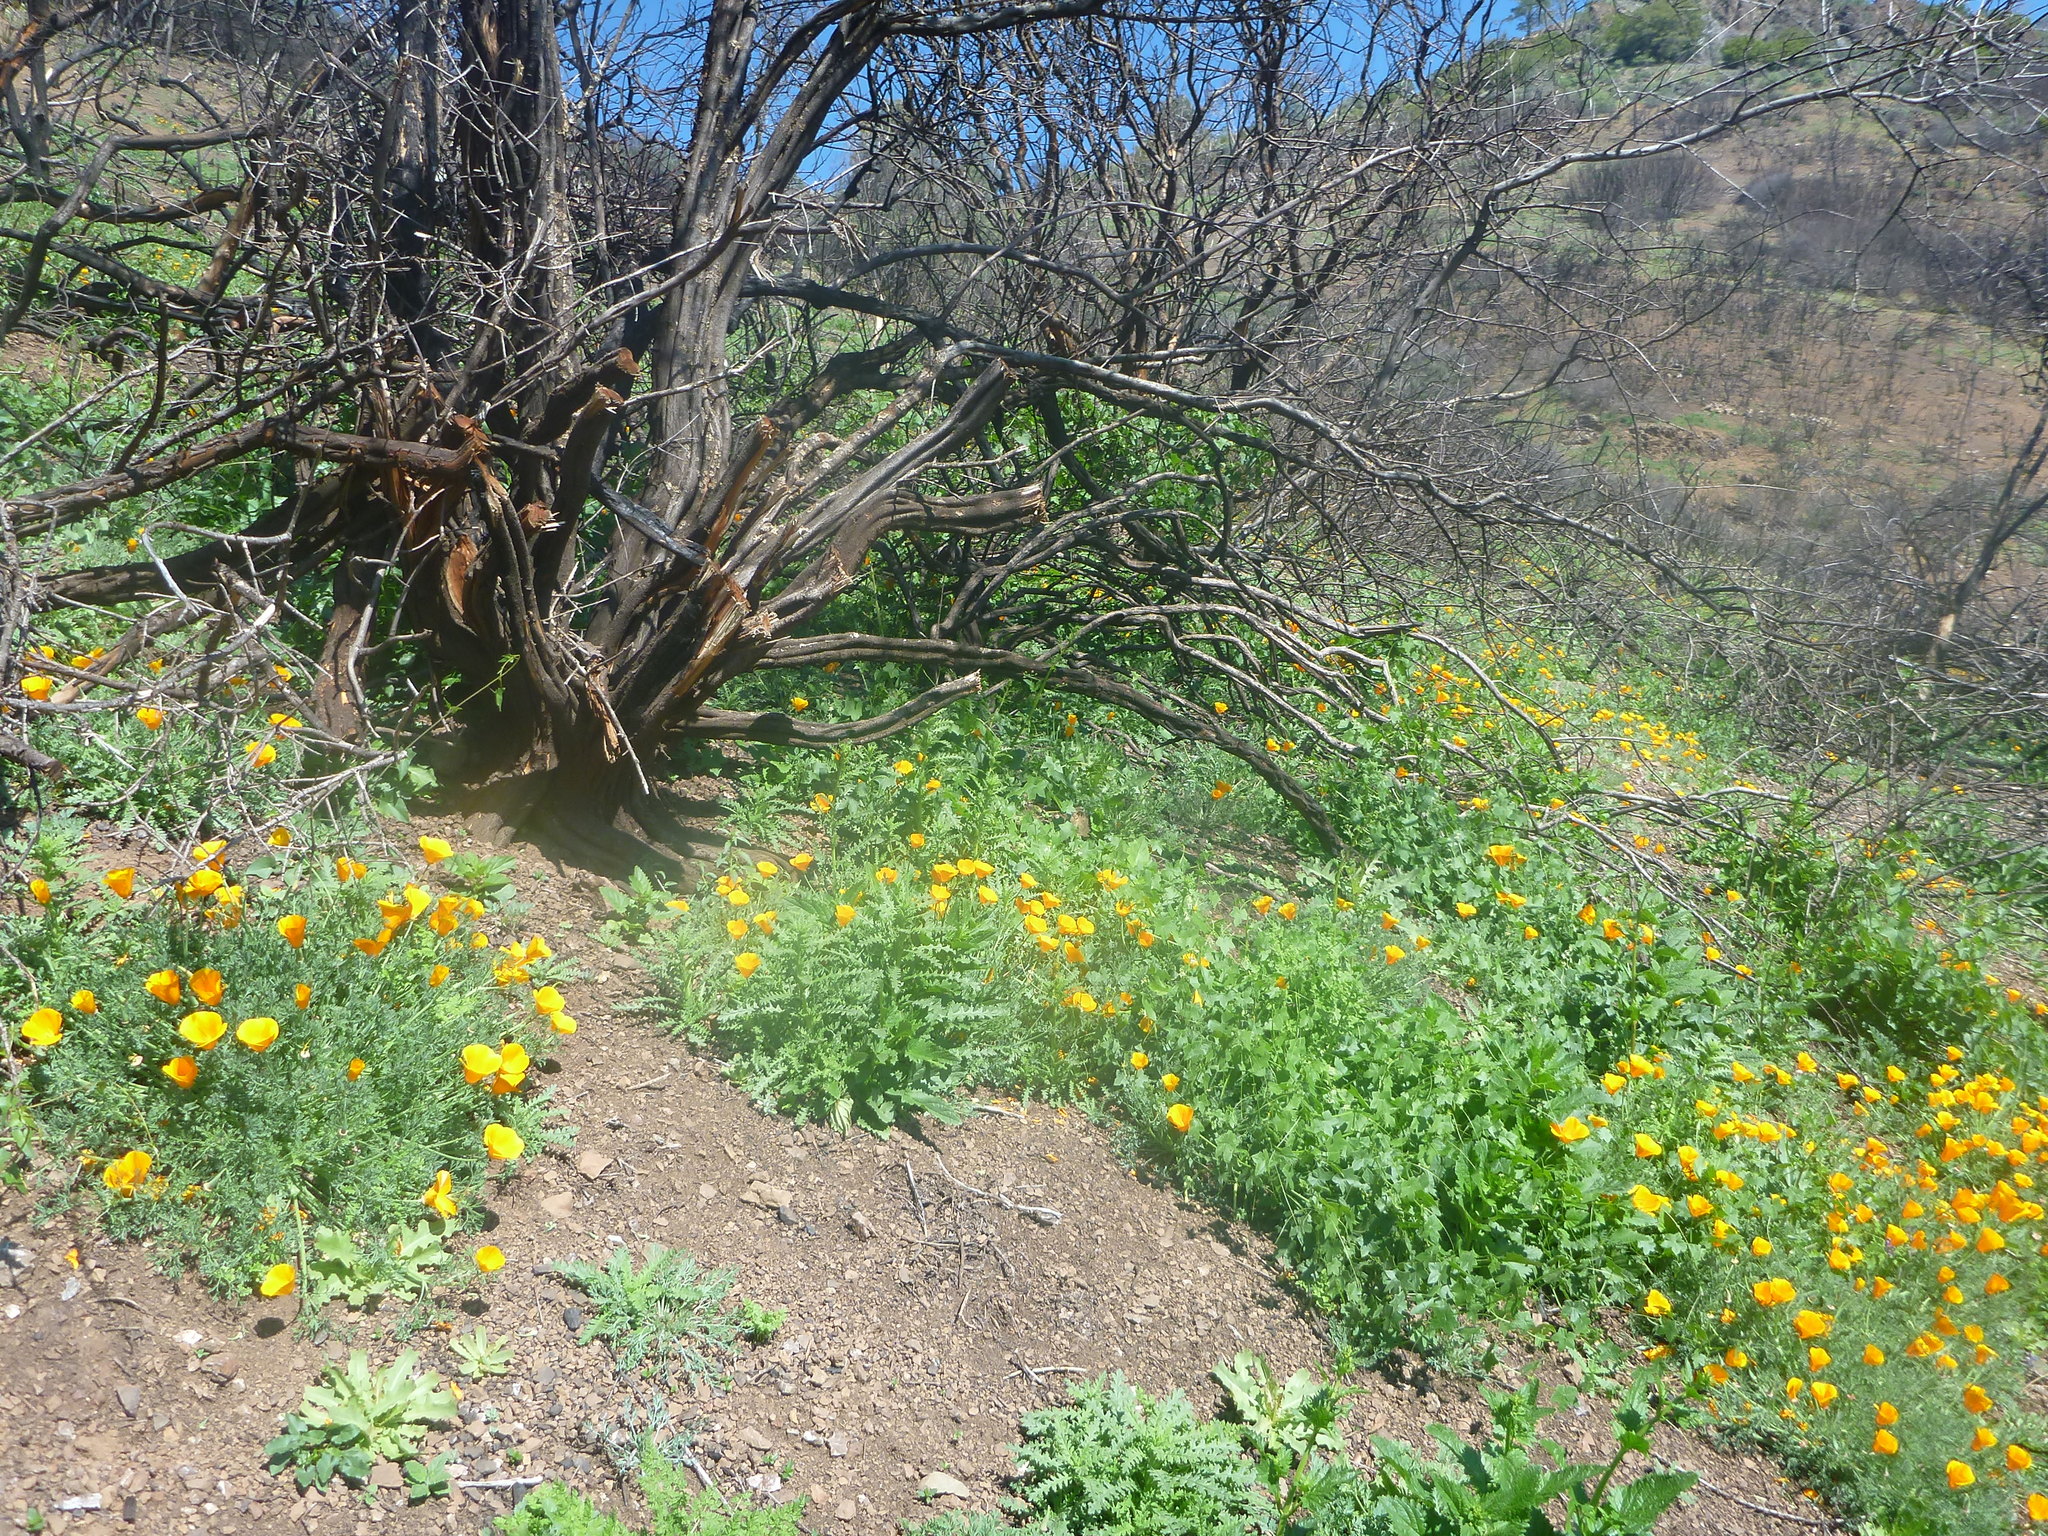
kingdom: Plantae
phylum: Tracheophyta
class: Magnoliopsida
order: Ranunculales
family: Papaveraceae
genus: Eschscholzia
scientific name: Eschscholzia californica
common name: California poppy
